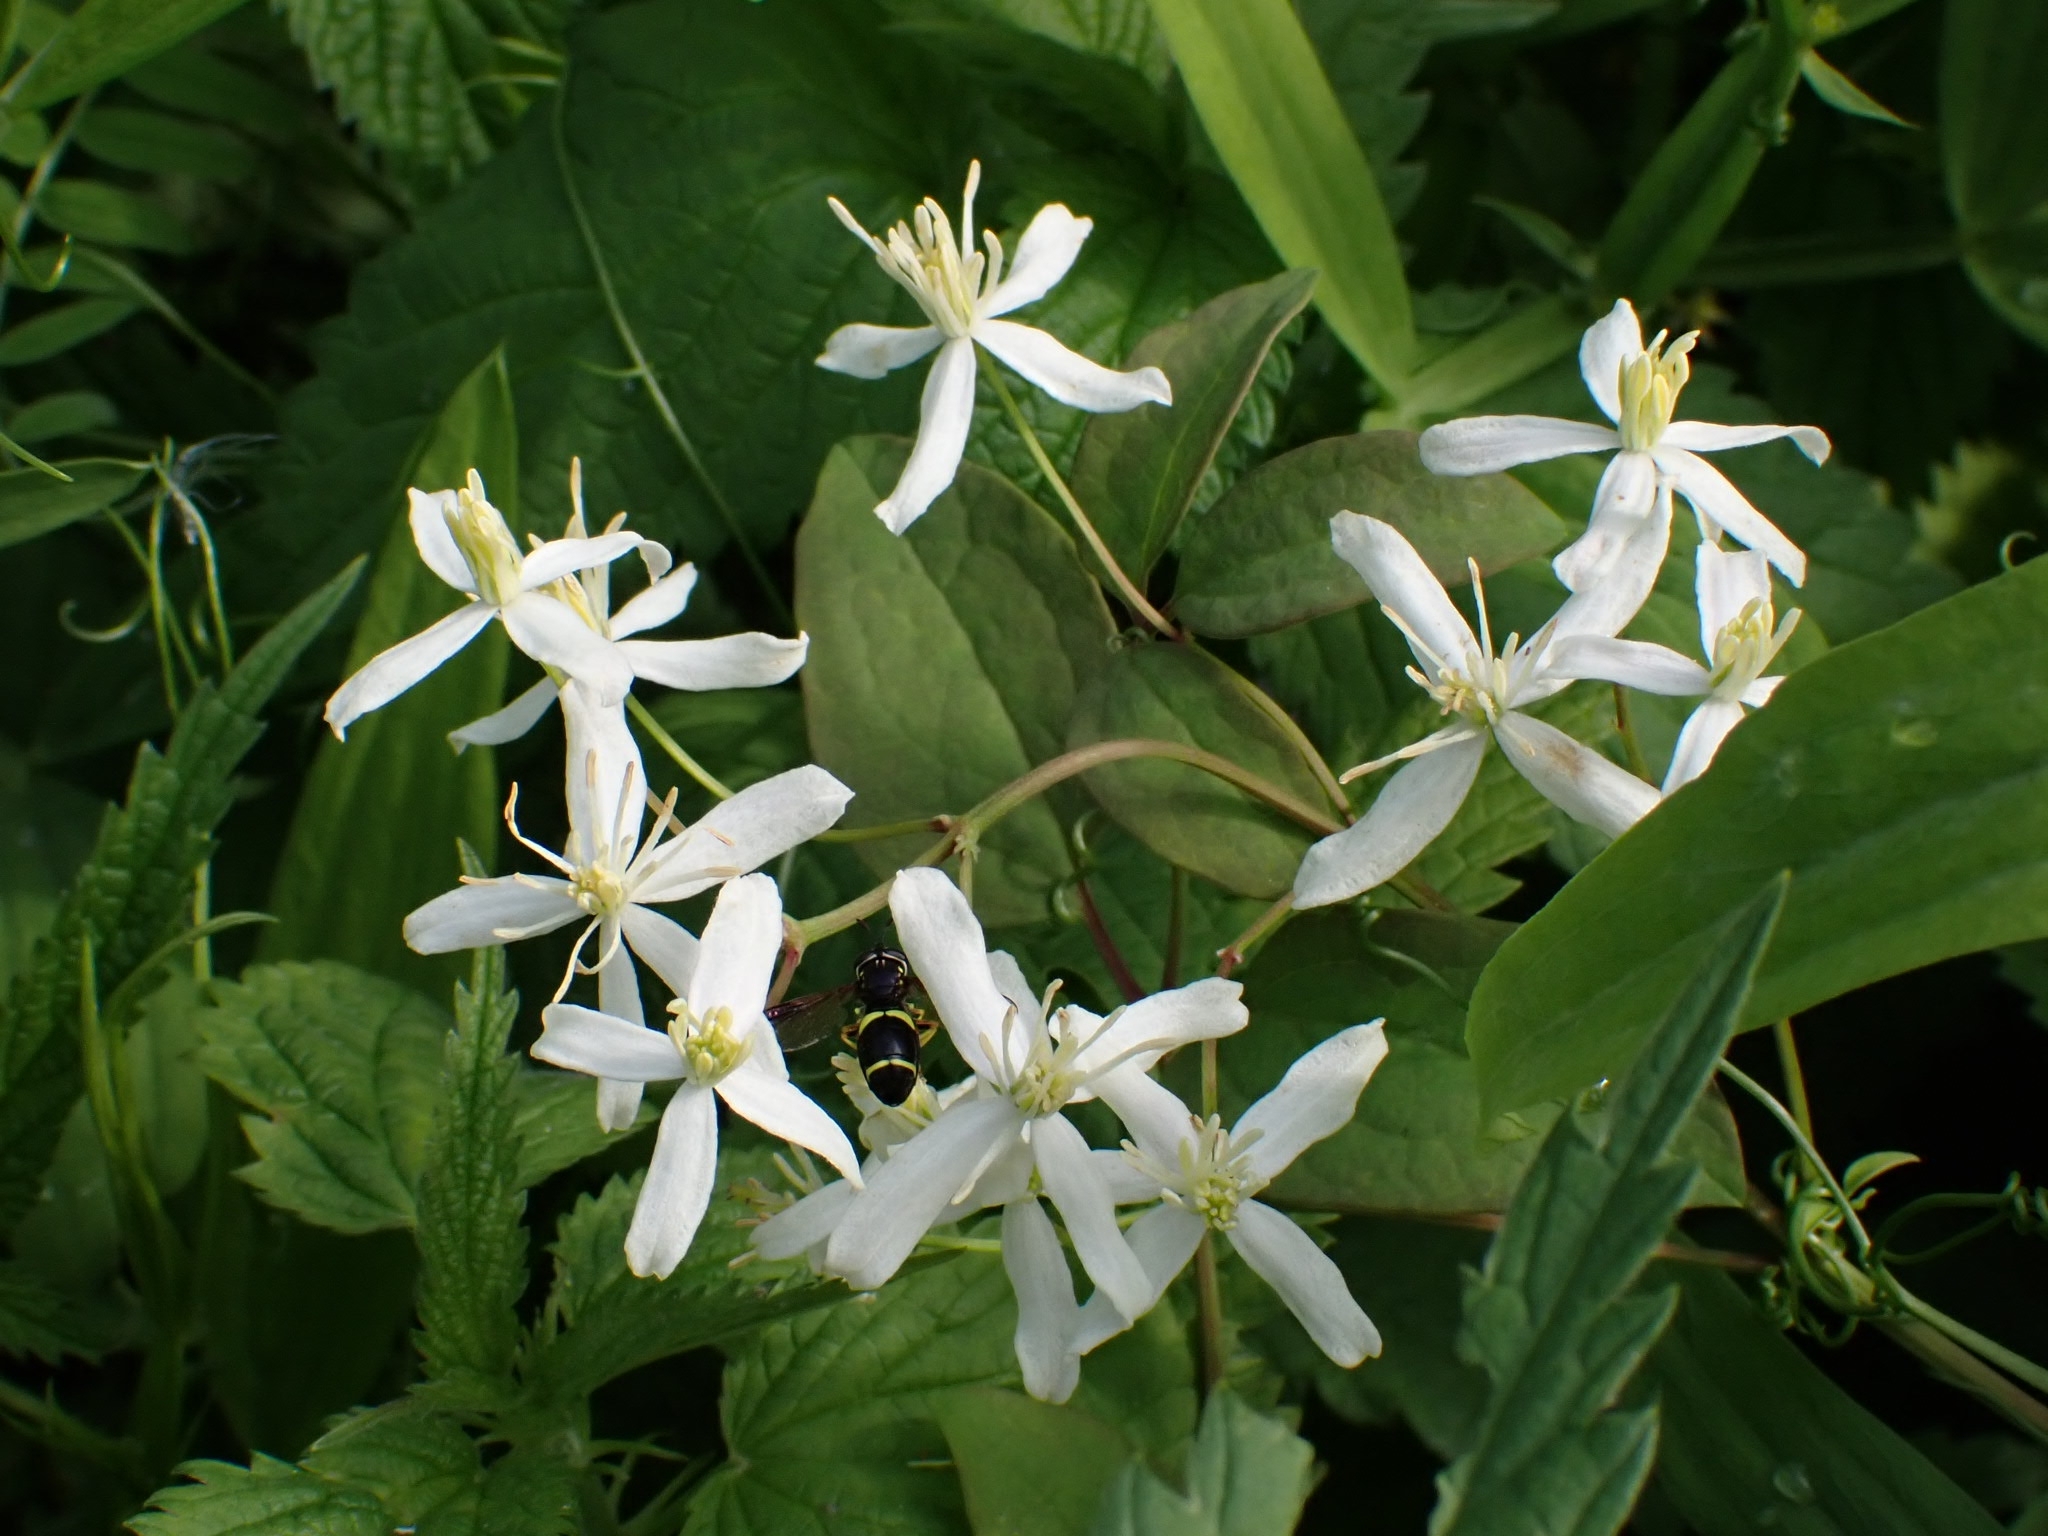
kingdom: Plantae
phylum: Tracheophyta
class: Magnoliopsida
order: Ranunculales
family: Ranunculaceae
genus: Clematis
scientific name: Clematis terniflora
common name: Sweet autumn clematis
